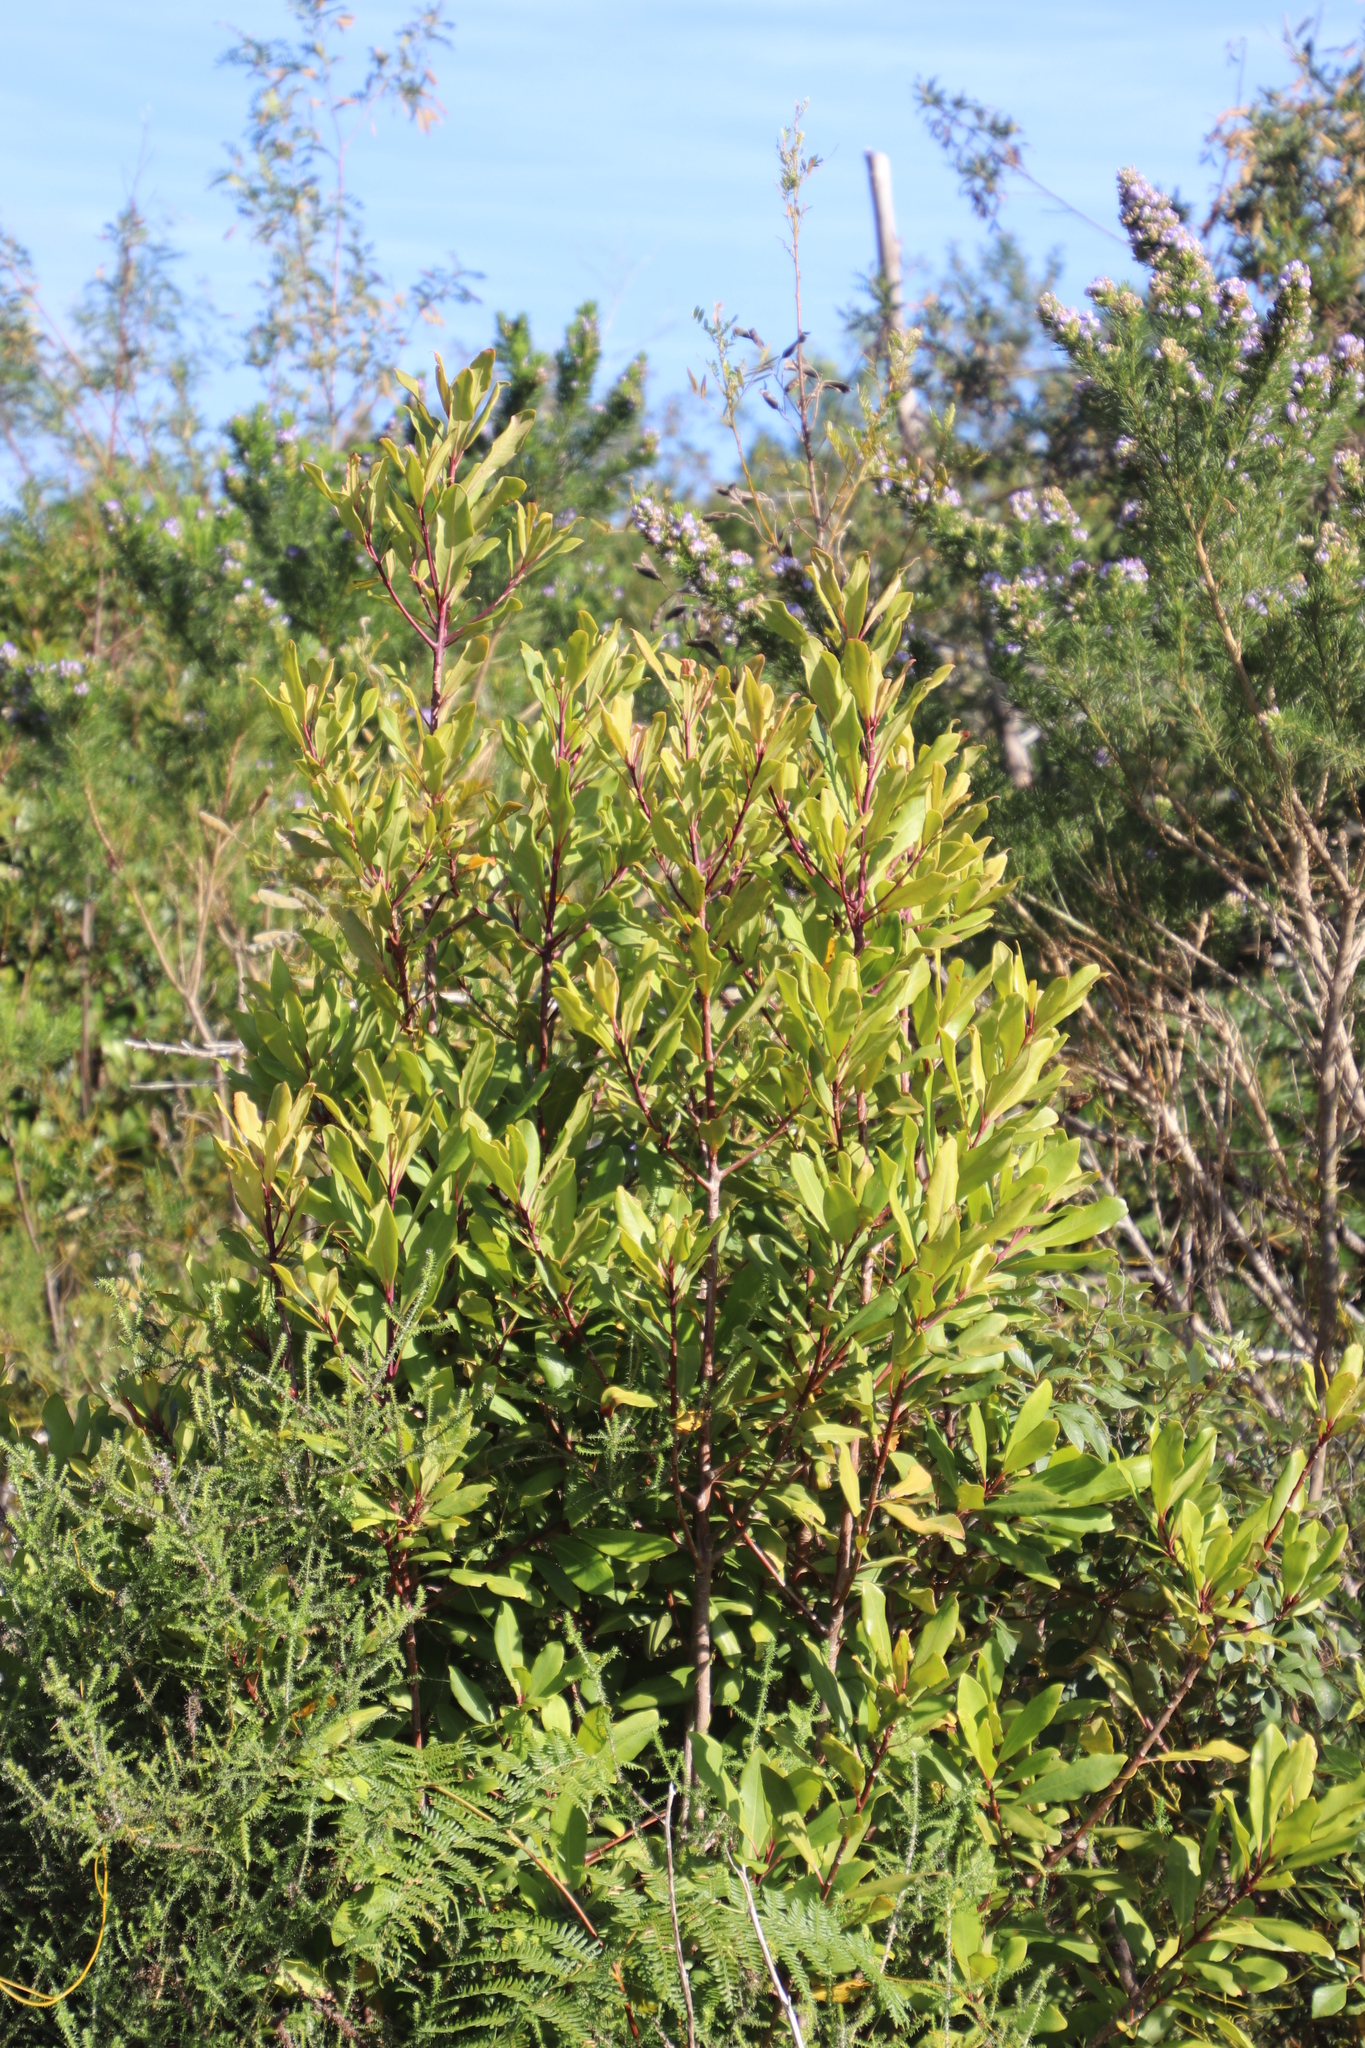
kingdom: Plantae
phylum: Tracheophyta
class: Magnoliopsida
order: Ericales
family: Primulaceae
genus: Myrsine
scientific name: Myrsine melanophloeos
